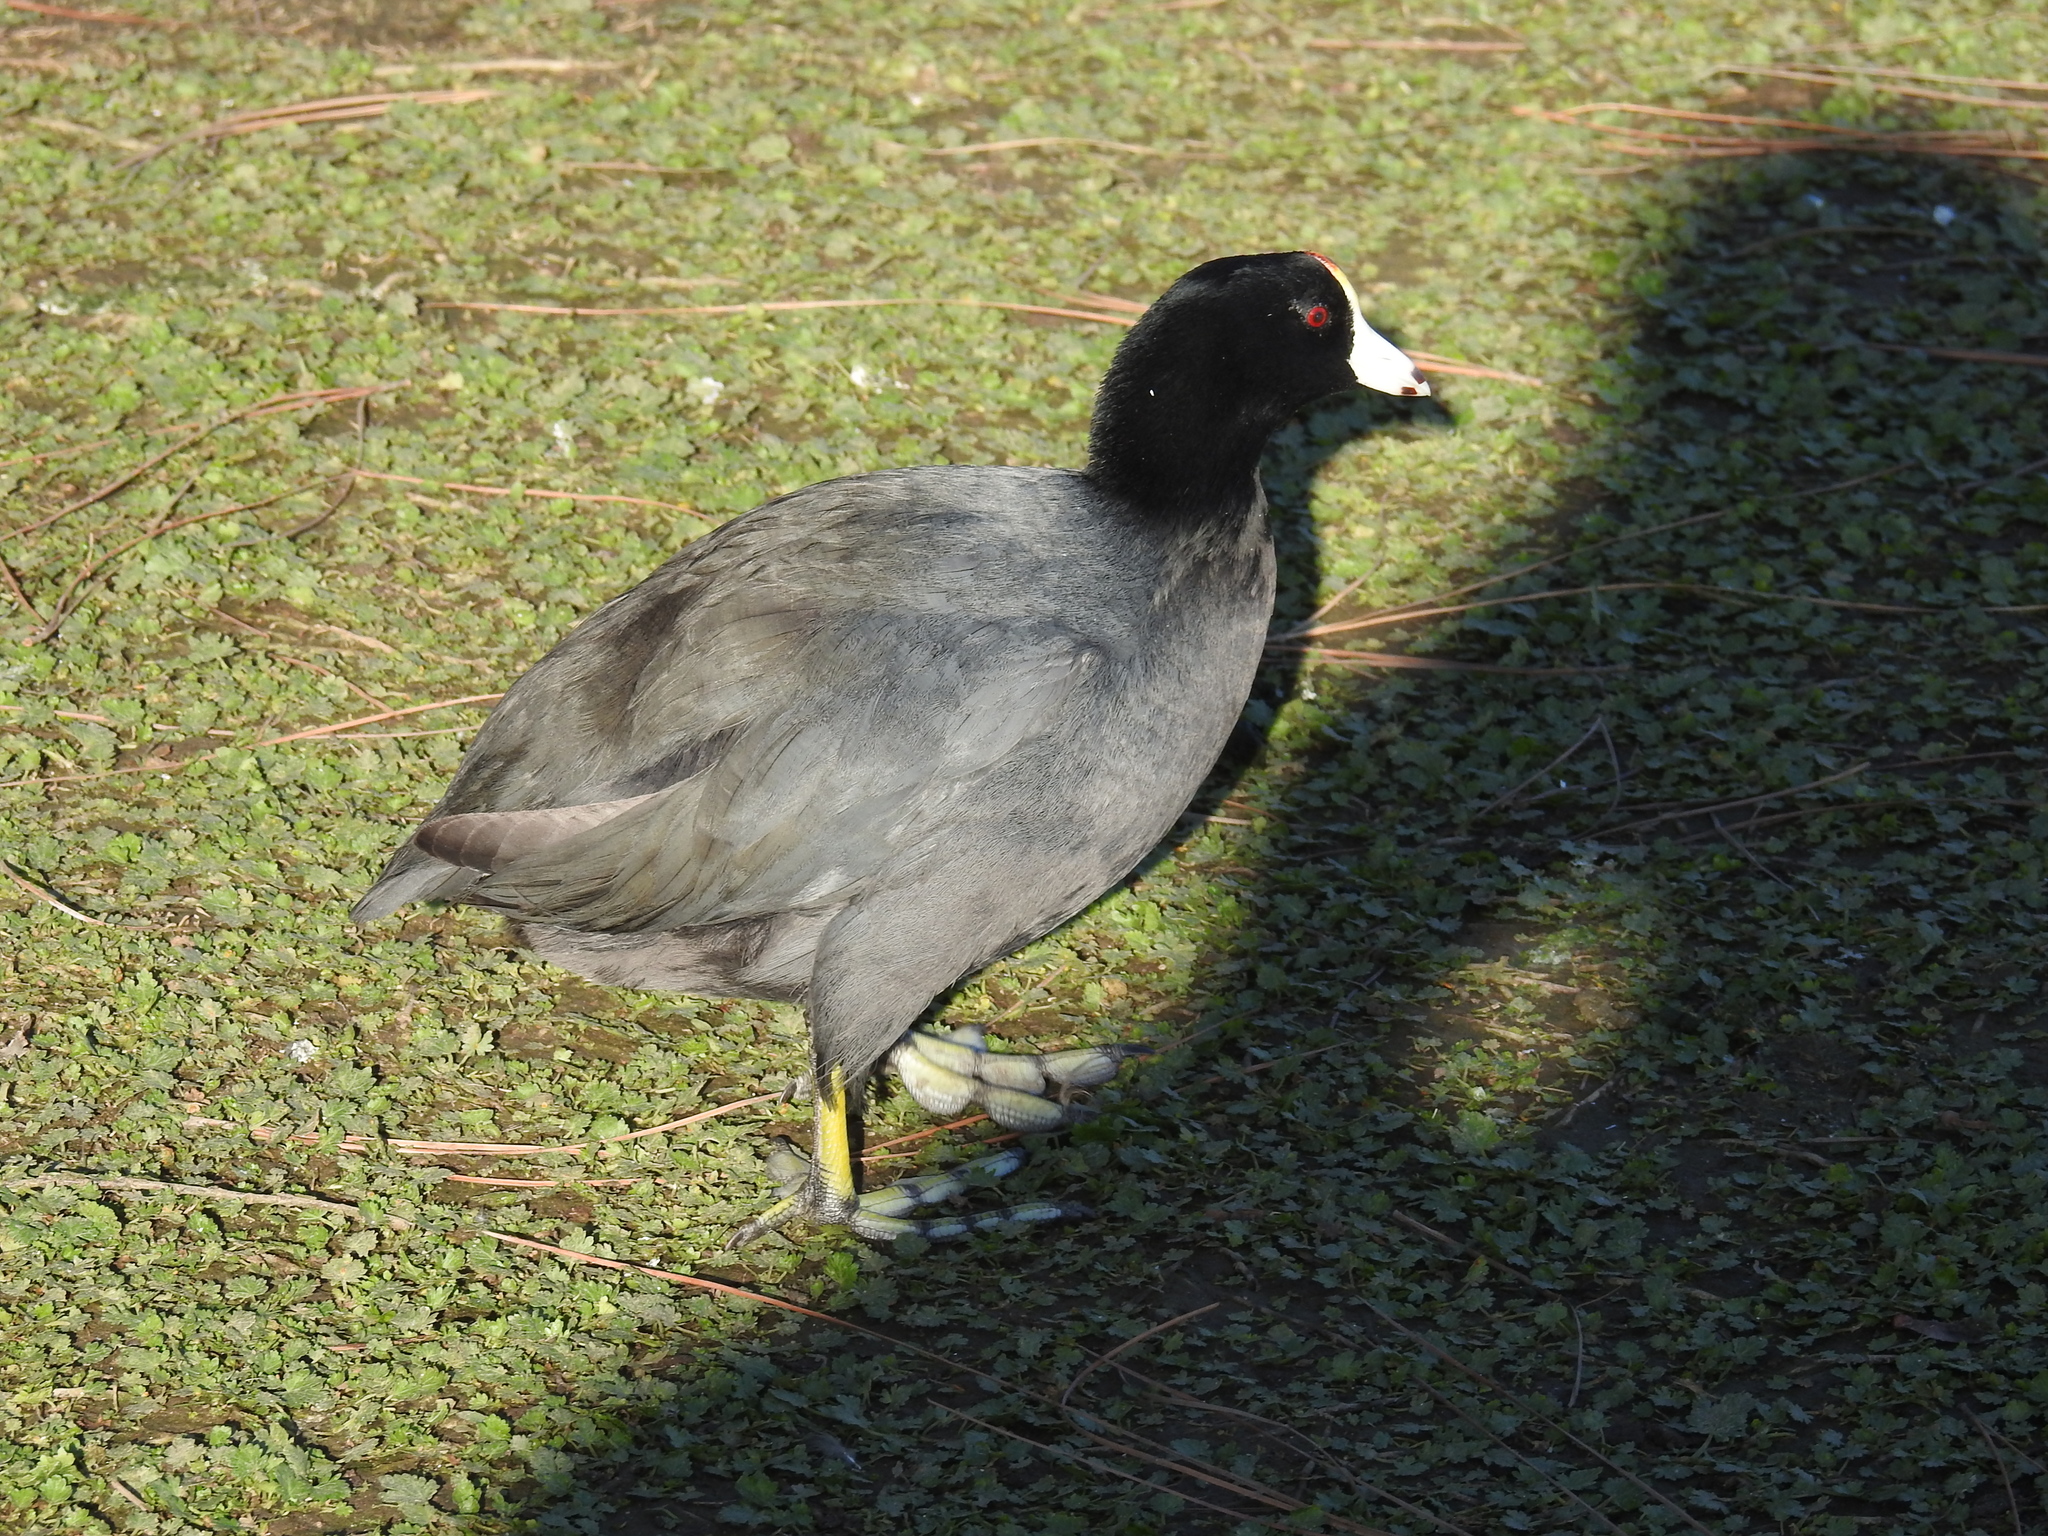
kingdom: Animalia
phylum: Chordata
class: Aves
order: Gruiformes
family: Rallidae
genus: Fulica
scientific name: Fulica americana
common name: American coot
